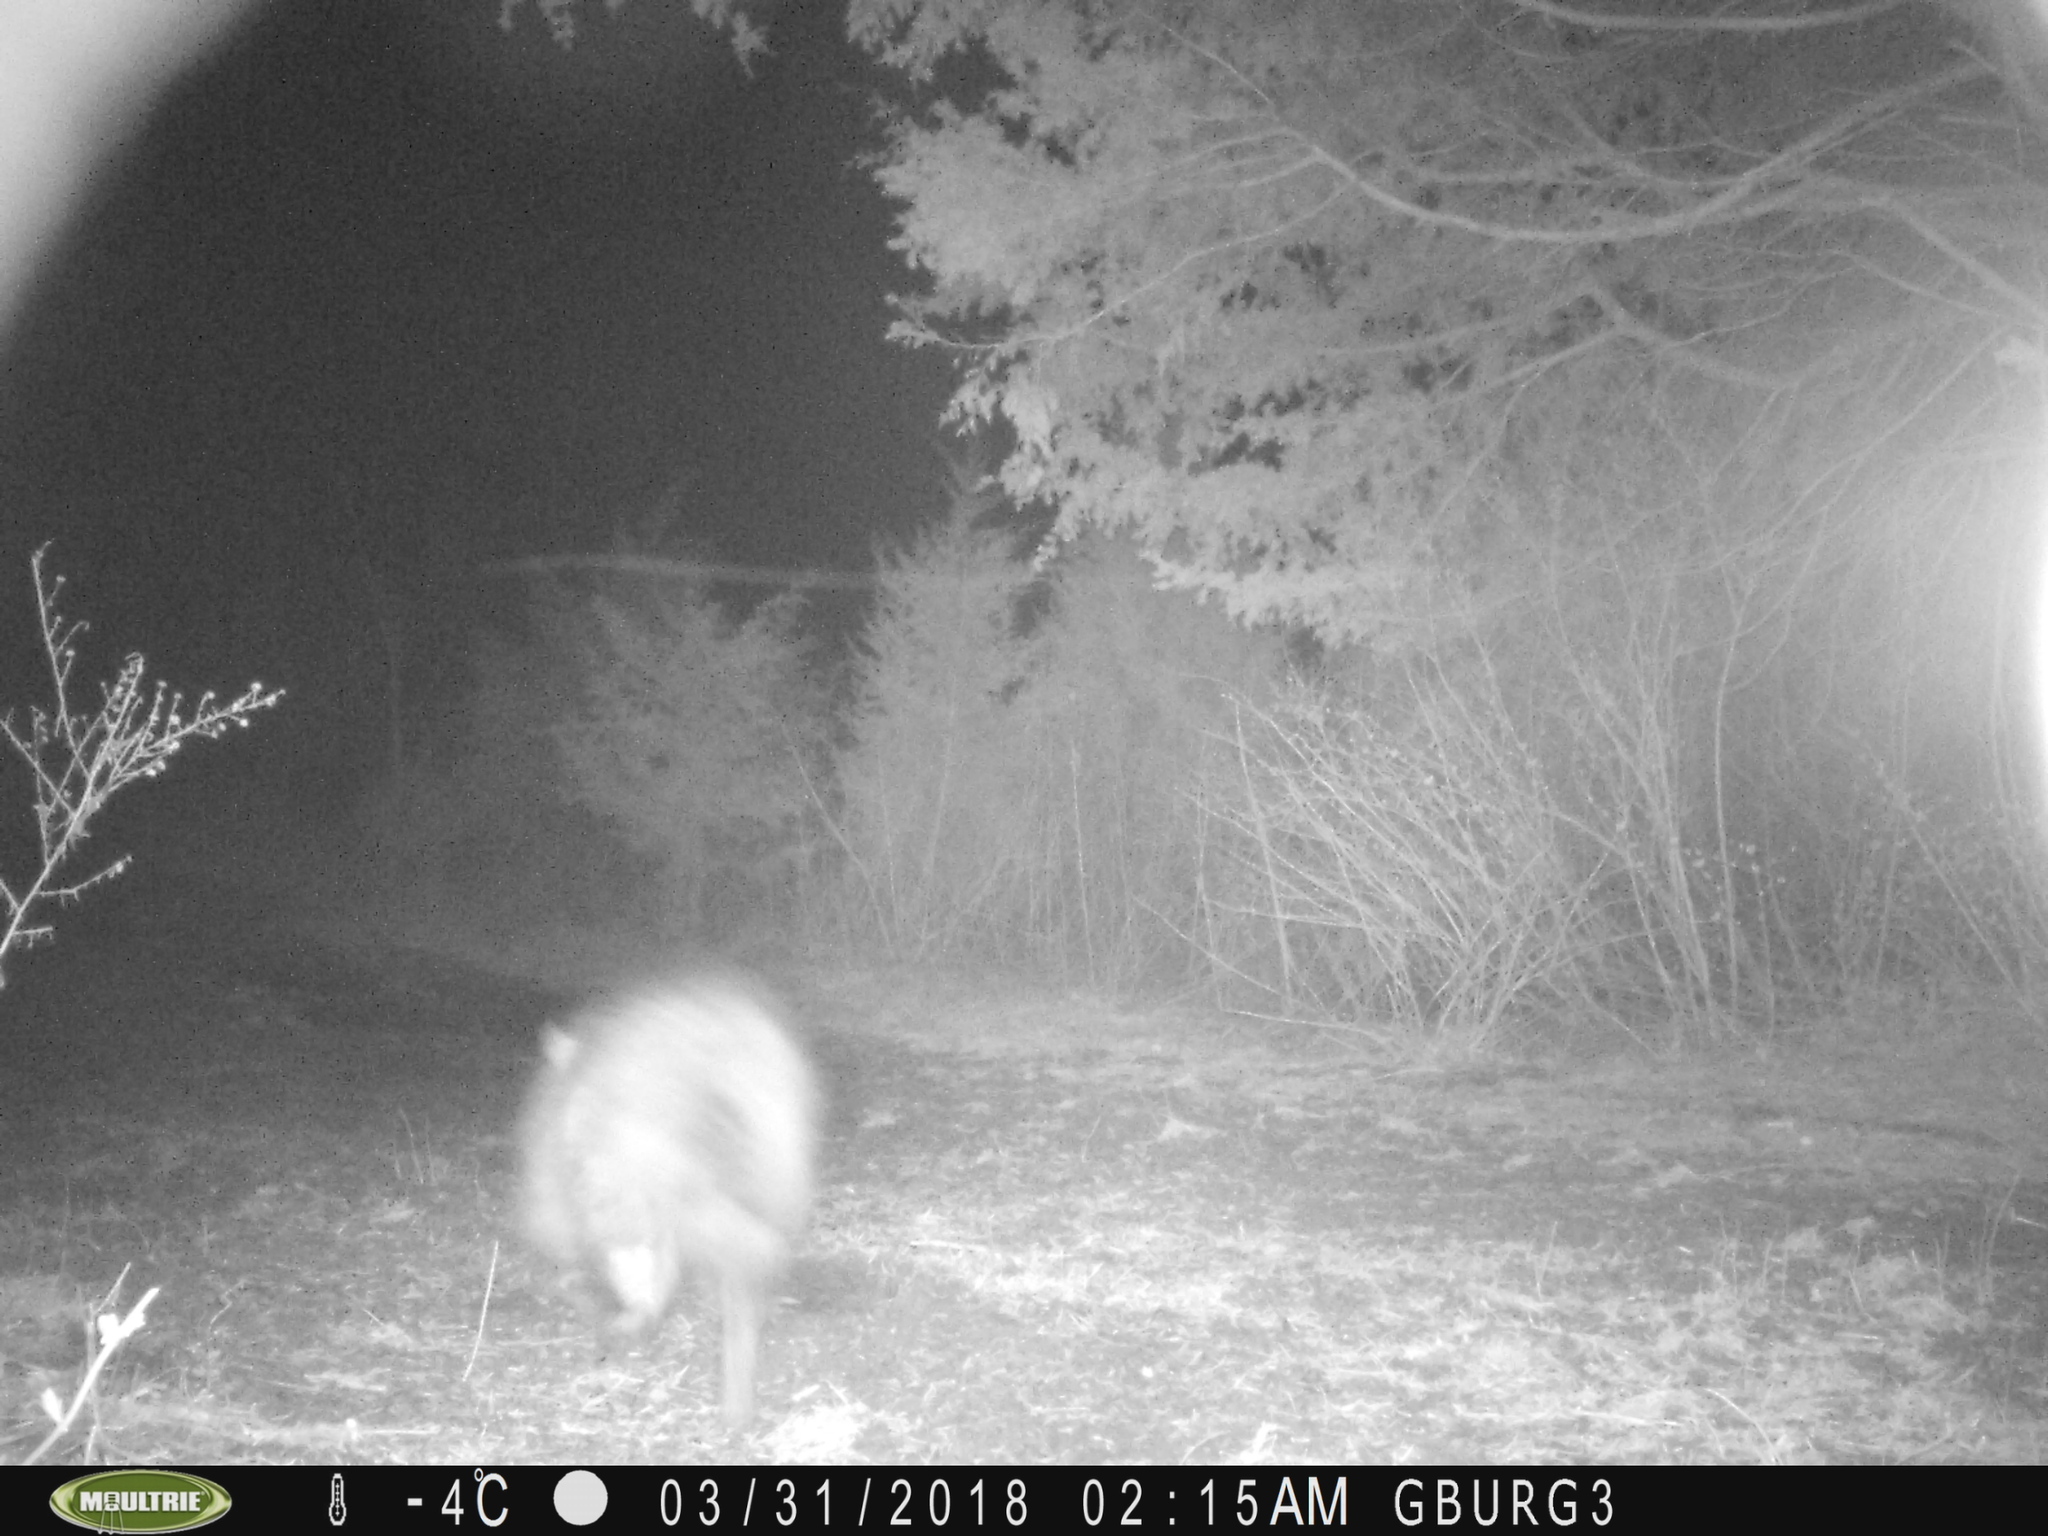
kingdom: Animalia
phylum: Chordata
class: Mammalia
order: Didelphimorphia
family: Didelphidae
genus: Didelphis
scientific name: Didelphis virginiana
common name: Virginia opossum
